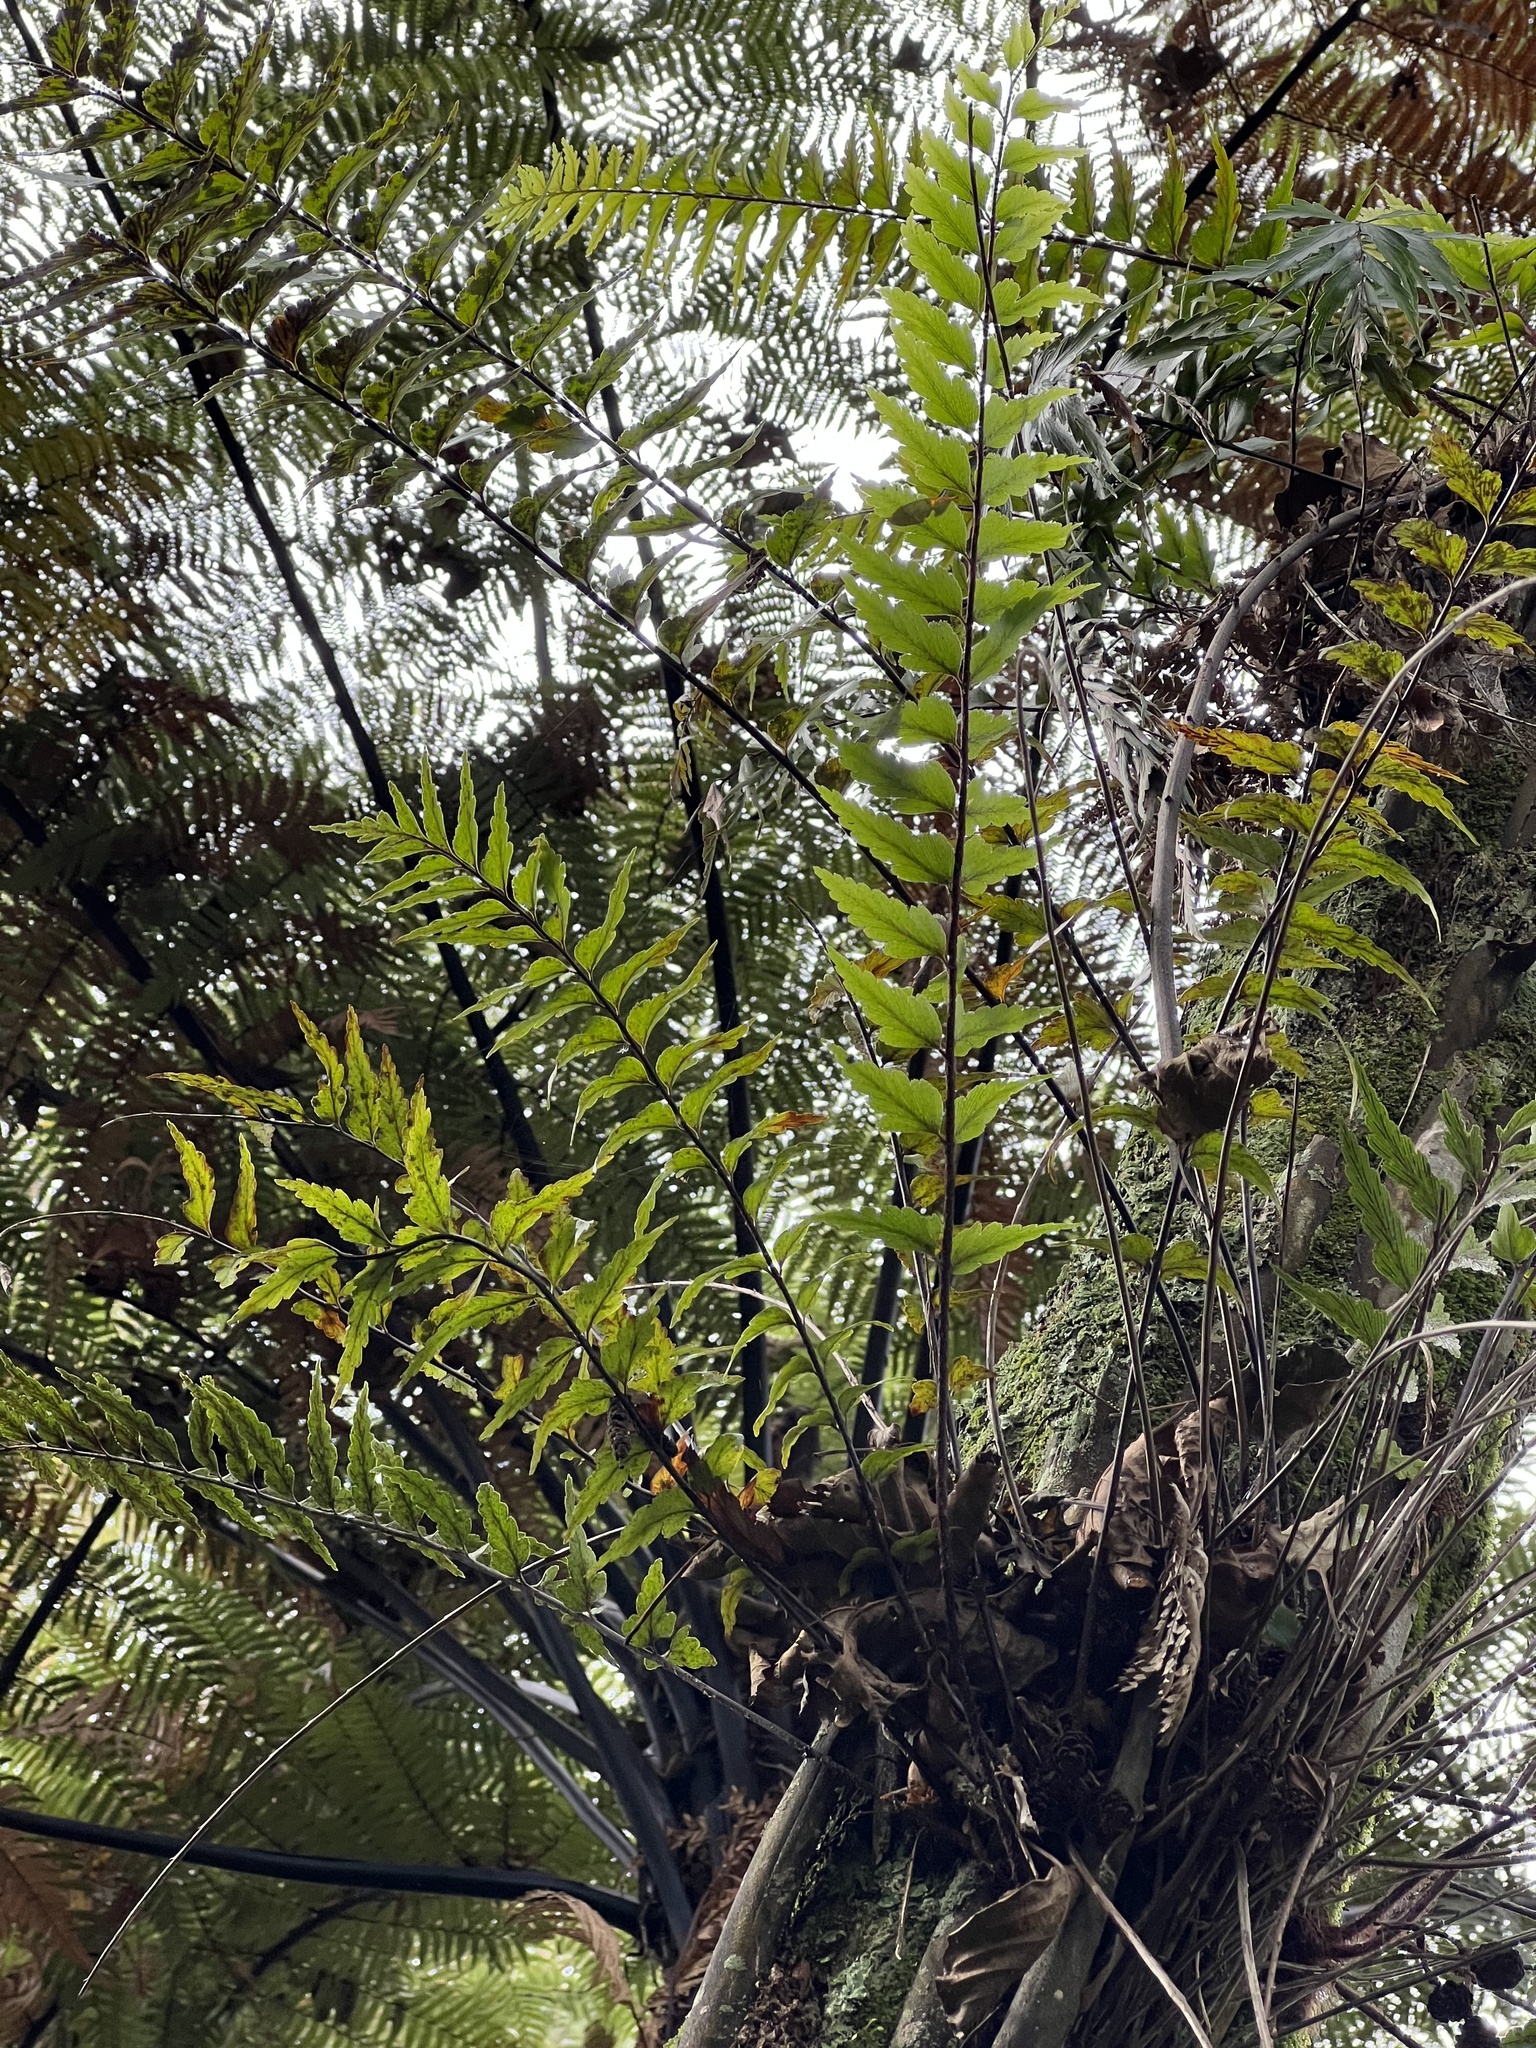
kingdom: Plantae
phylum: Tracheophyta
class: Polypodiopsida
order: Polypodiales
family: Aspleniaceae
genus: Asplenium
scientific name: Asplenium polyodon
